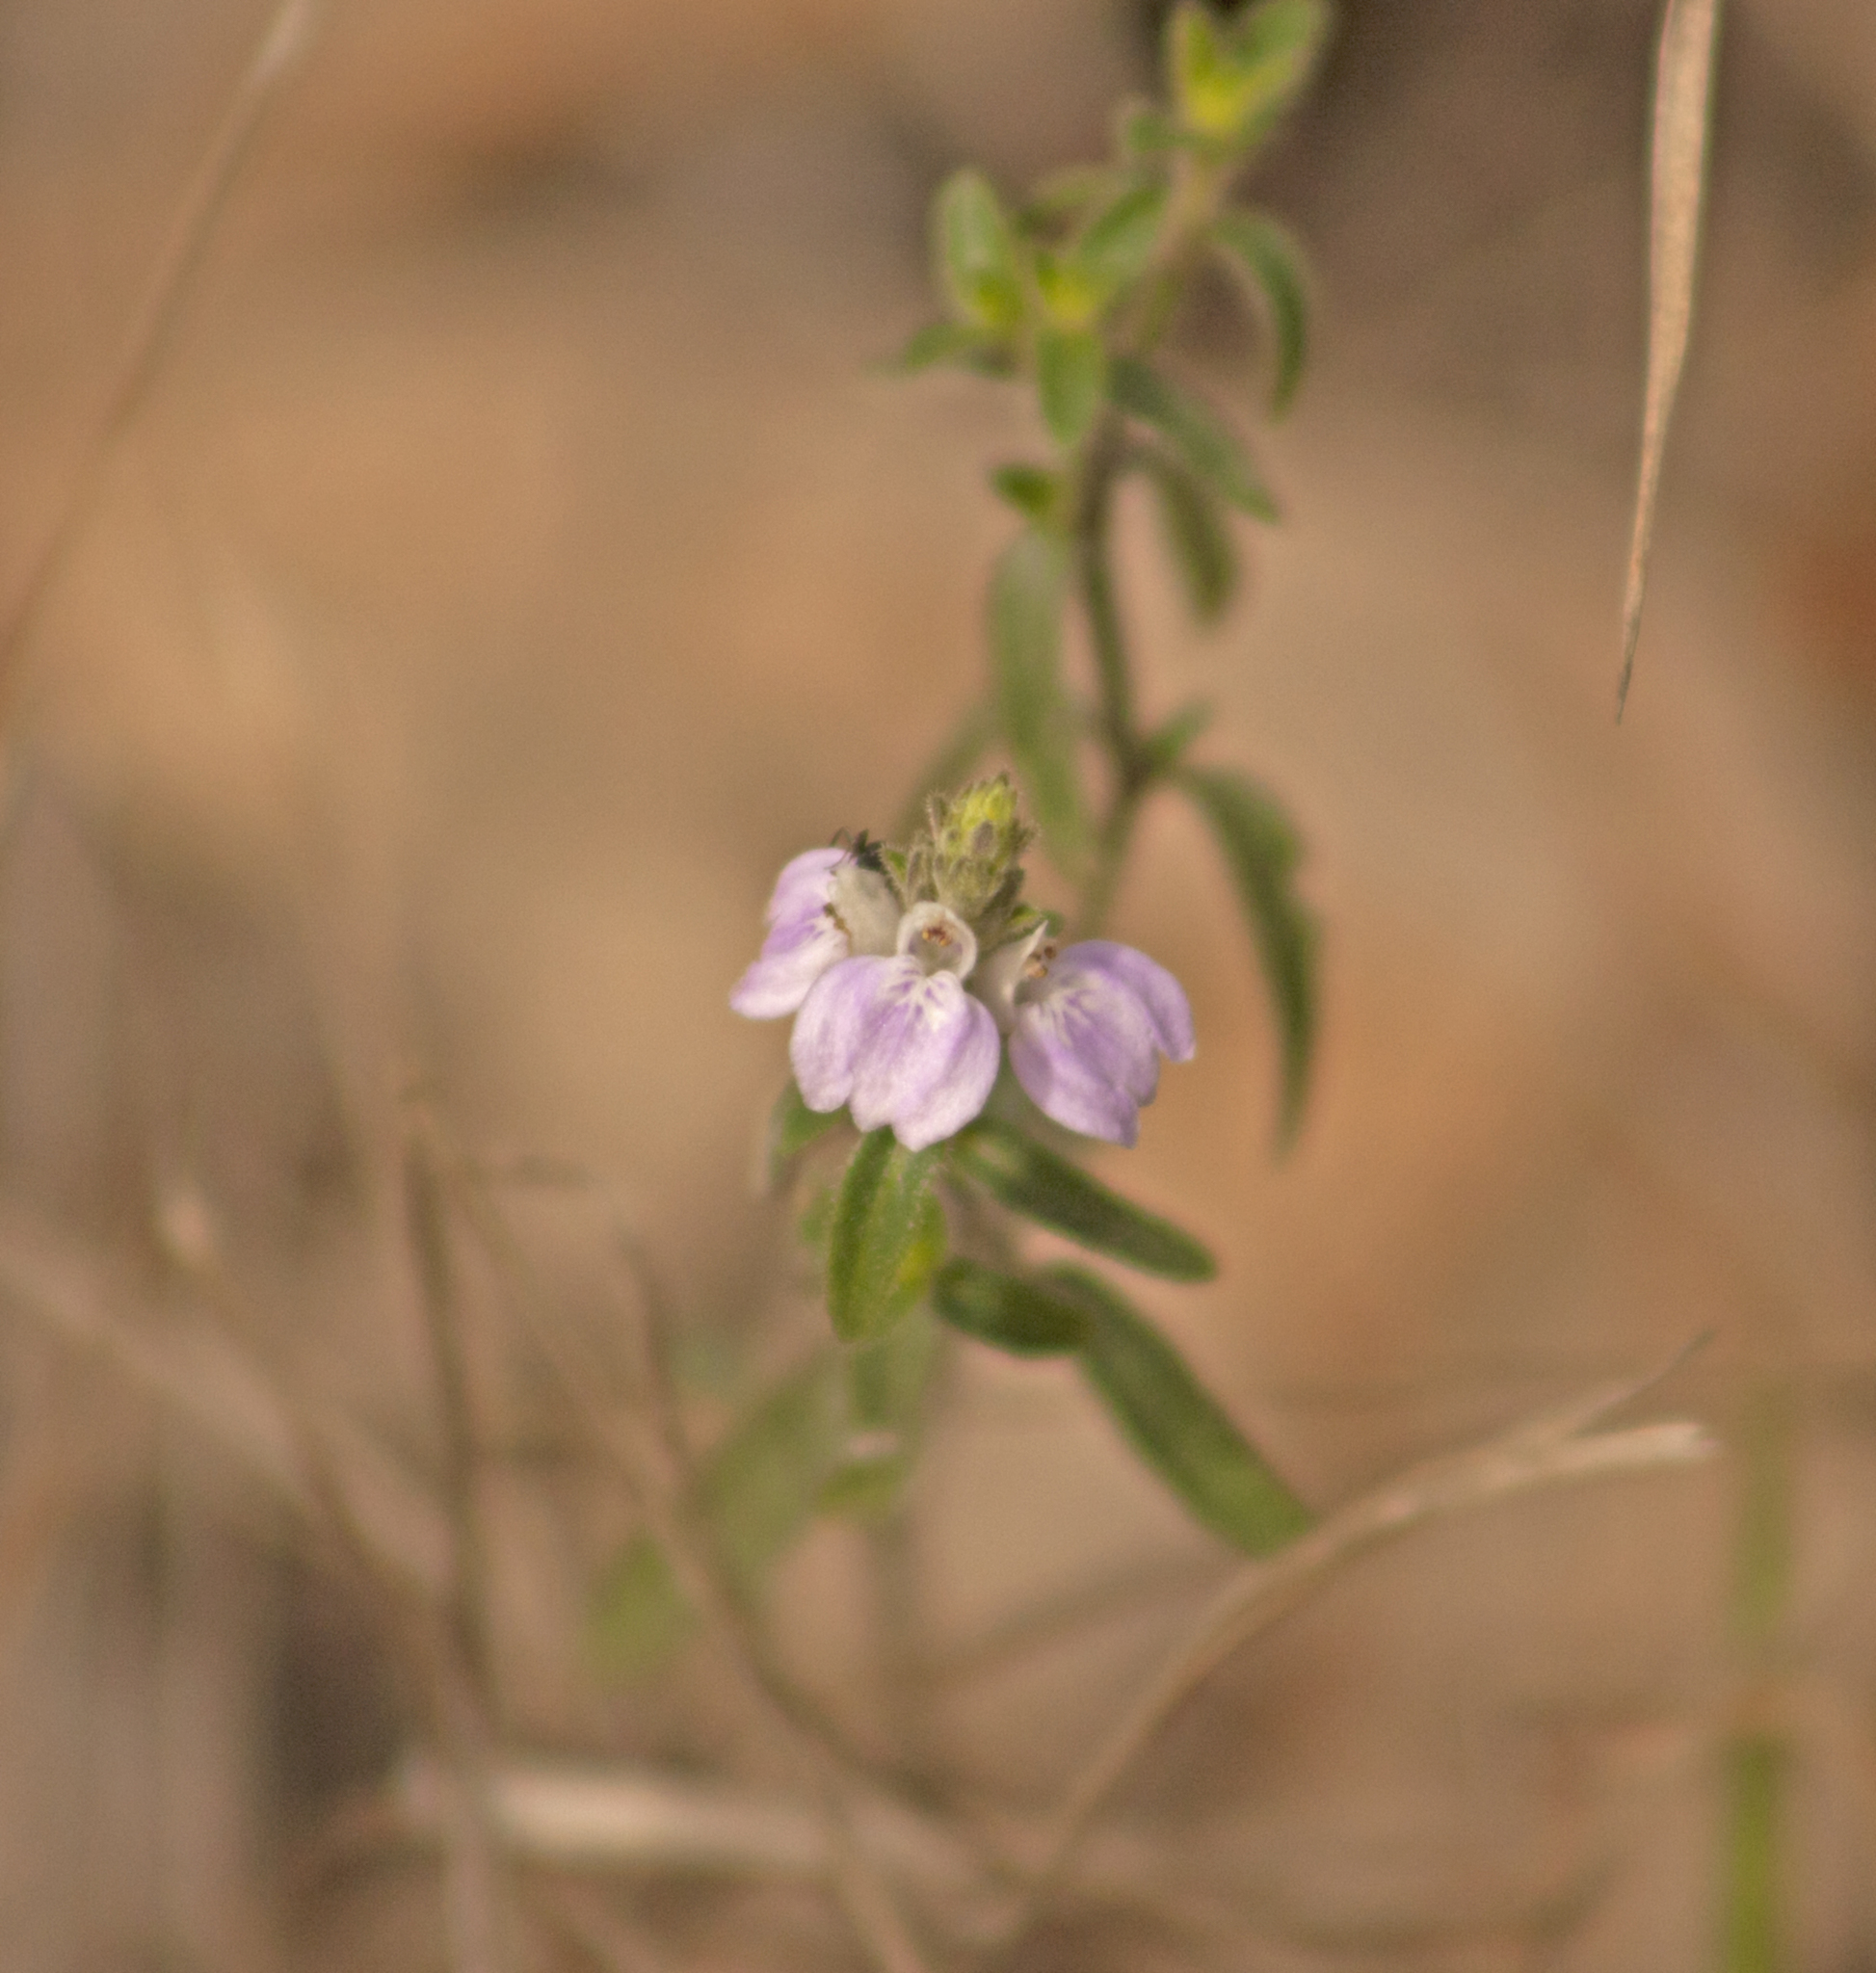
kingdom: Plantae
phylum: Tracheophyta
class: Magnoliopsida
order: Lamiales
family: Acanthaceae
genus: Rostellularia
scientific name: Rostellularia adscendens
